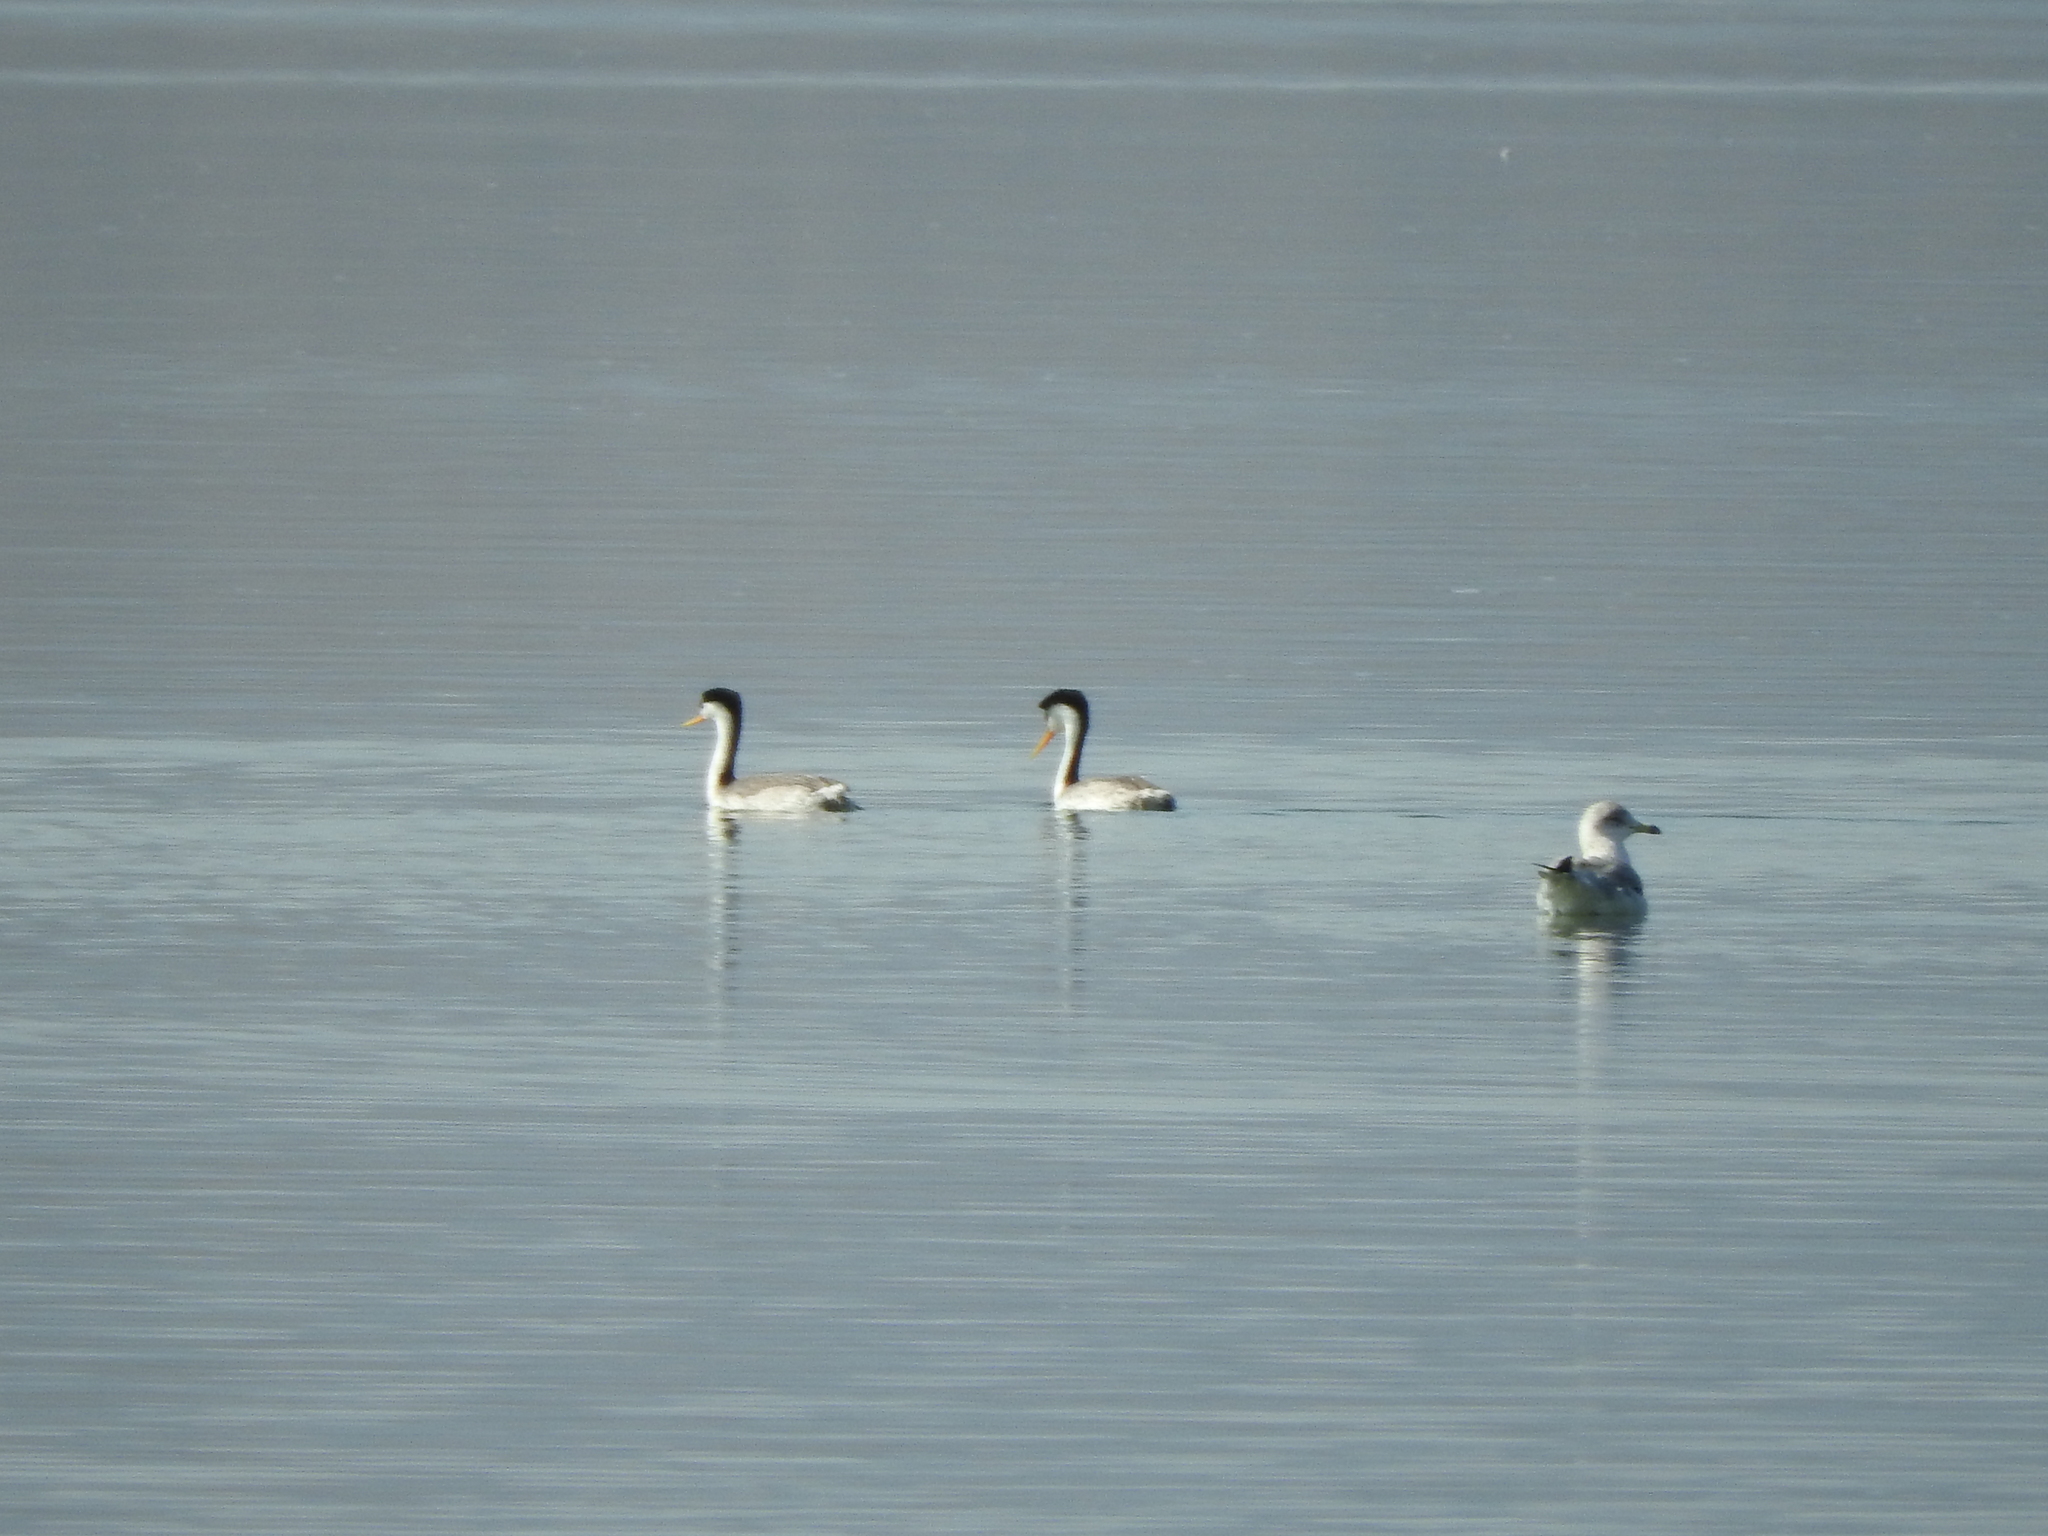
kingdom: Animalia
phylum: Chordata
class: Aves
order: Podicipediformes
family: Podicipedidae
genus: Aechmophorus
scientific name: Aechmophorus clarkii
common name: Clark's grebe
